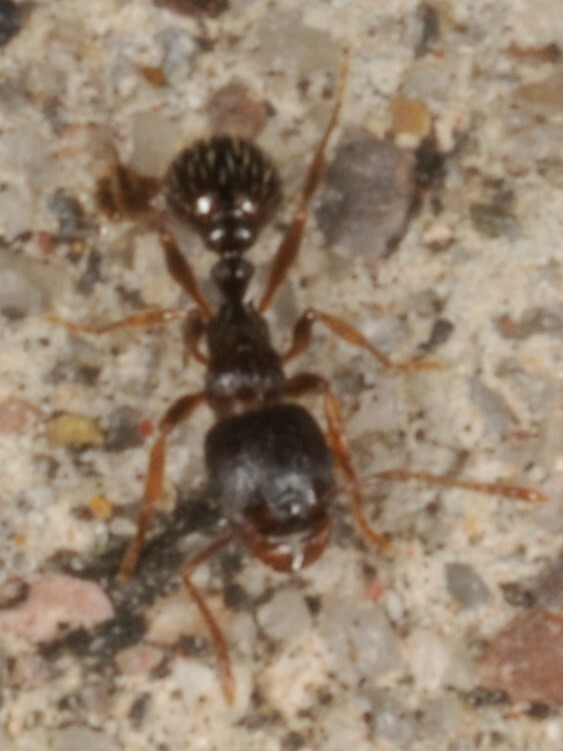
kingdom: Animalia
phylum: Arthropoda
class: Insecta
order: Hymenoptera
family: Formicidae
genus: Tetramorium
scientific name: Tetramorium immigrans
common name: Pavement ant
